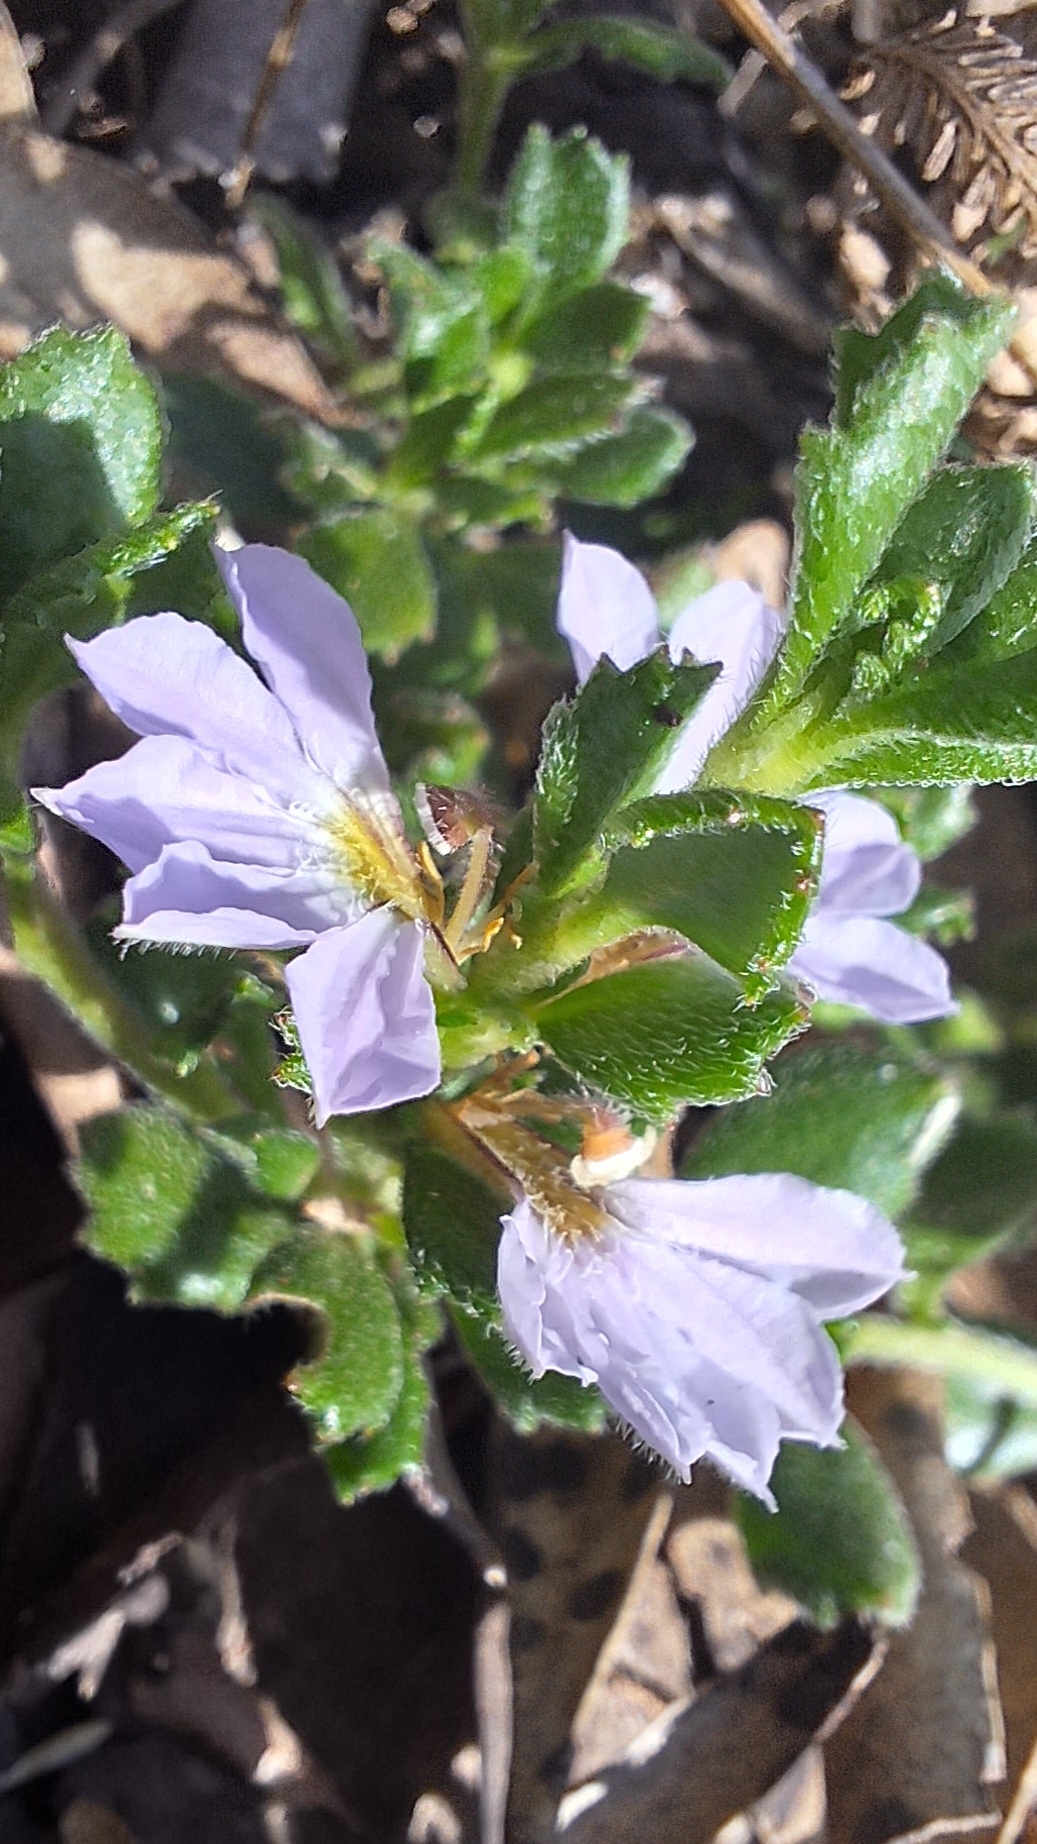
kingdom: Plantae
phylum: Tracheophyta
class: Magnoliopsida
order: Asterales
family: Goodeniaceae
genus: Scaevola
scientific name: Scaevola albida
